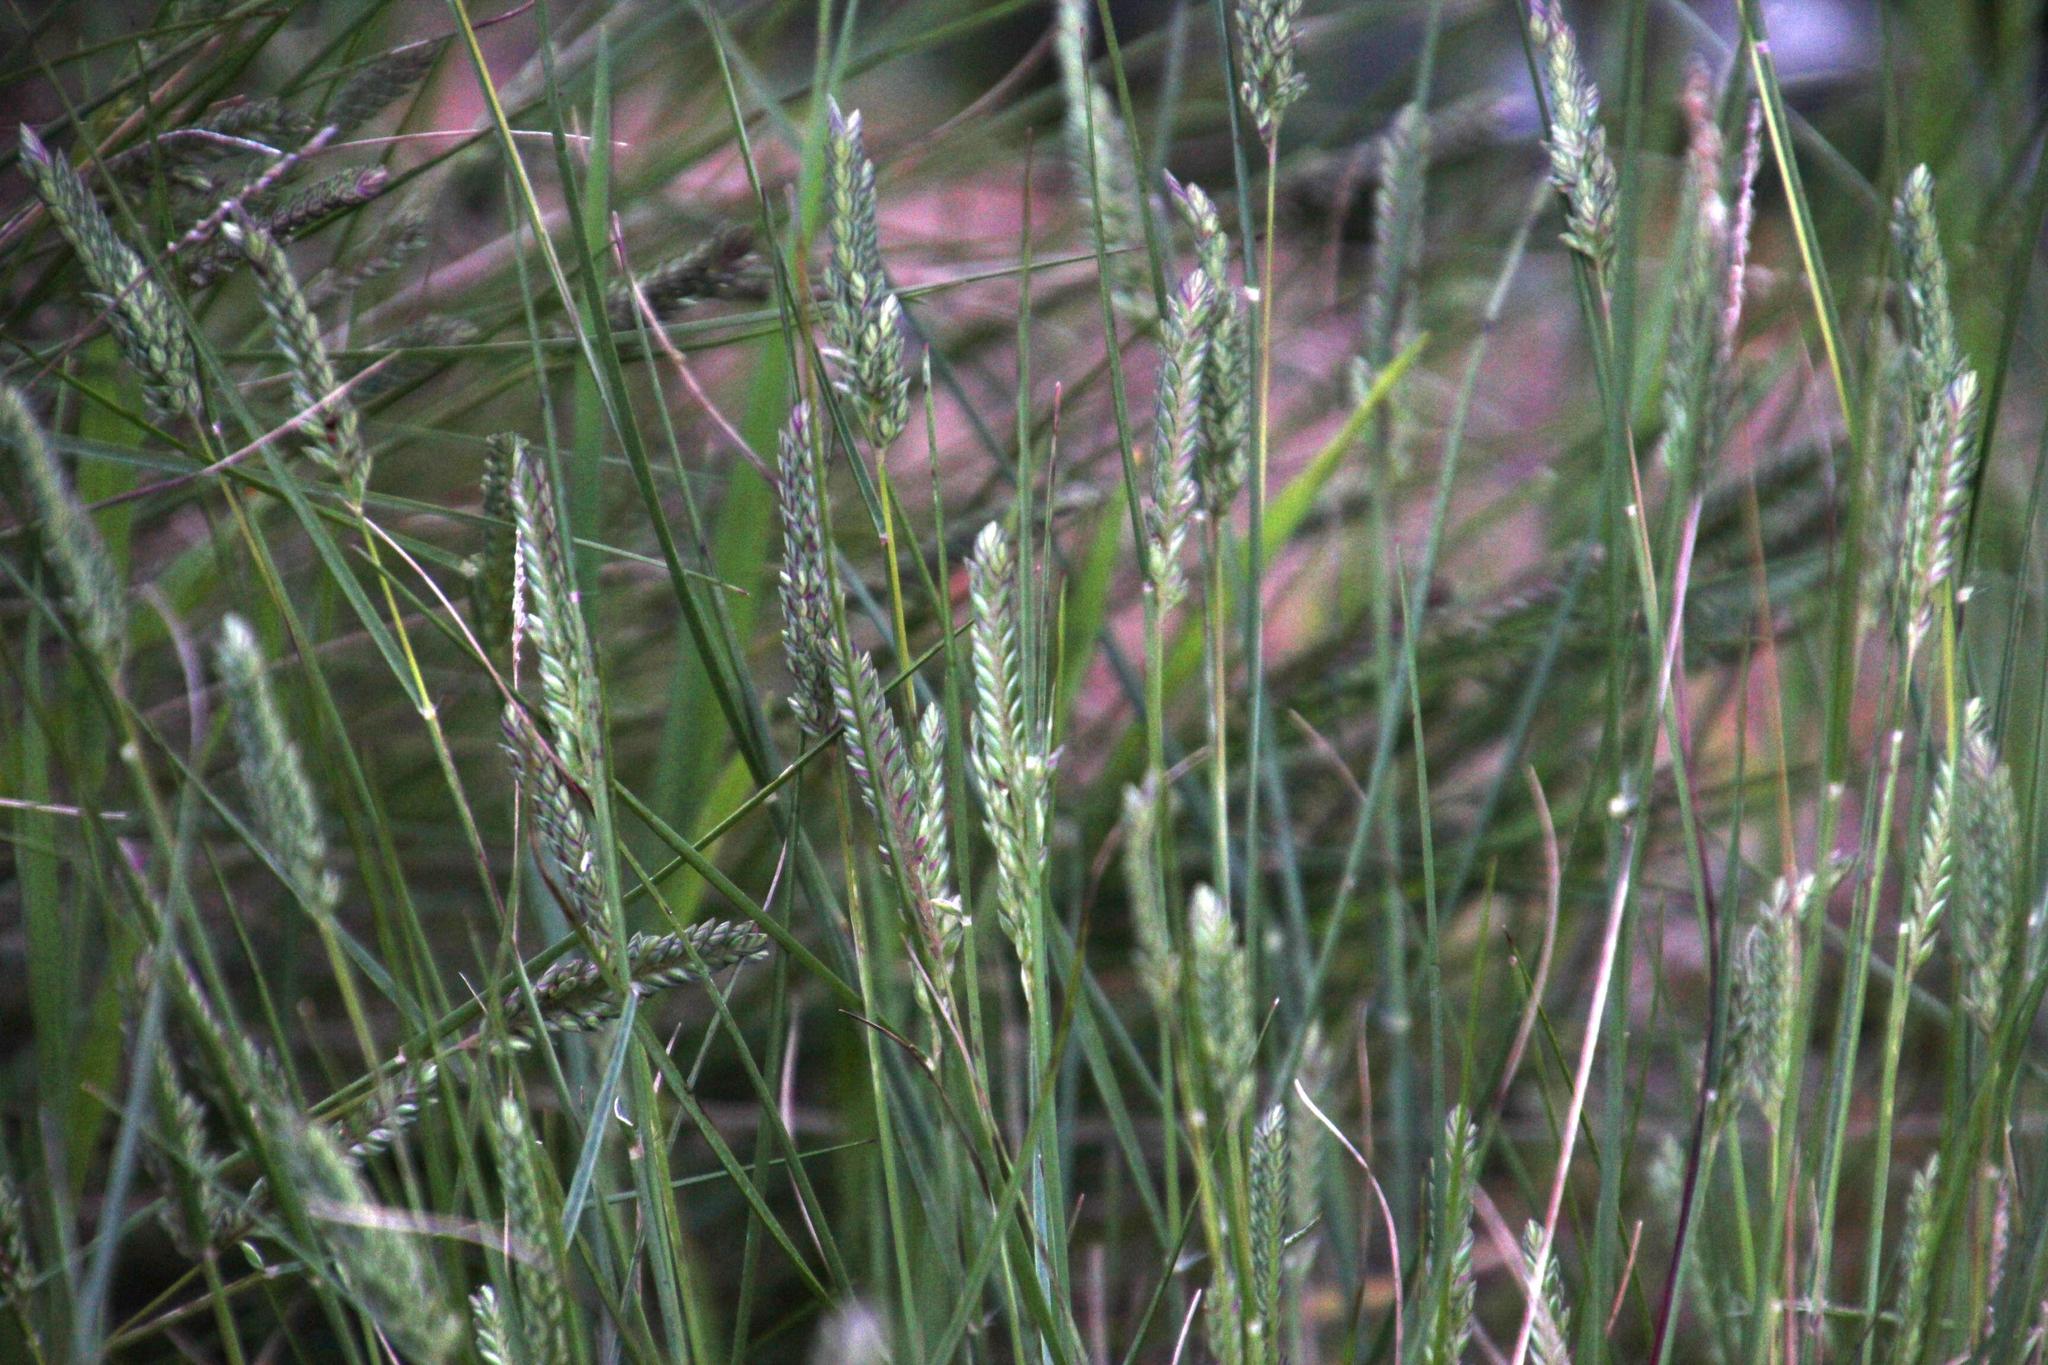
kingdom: Plantae
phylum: Tracheophyta
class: Liliopsida
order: Poales
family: Poaceae
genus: Tribolium
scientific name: Tribolium uniolae
